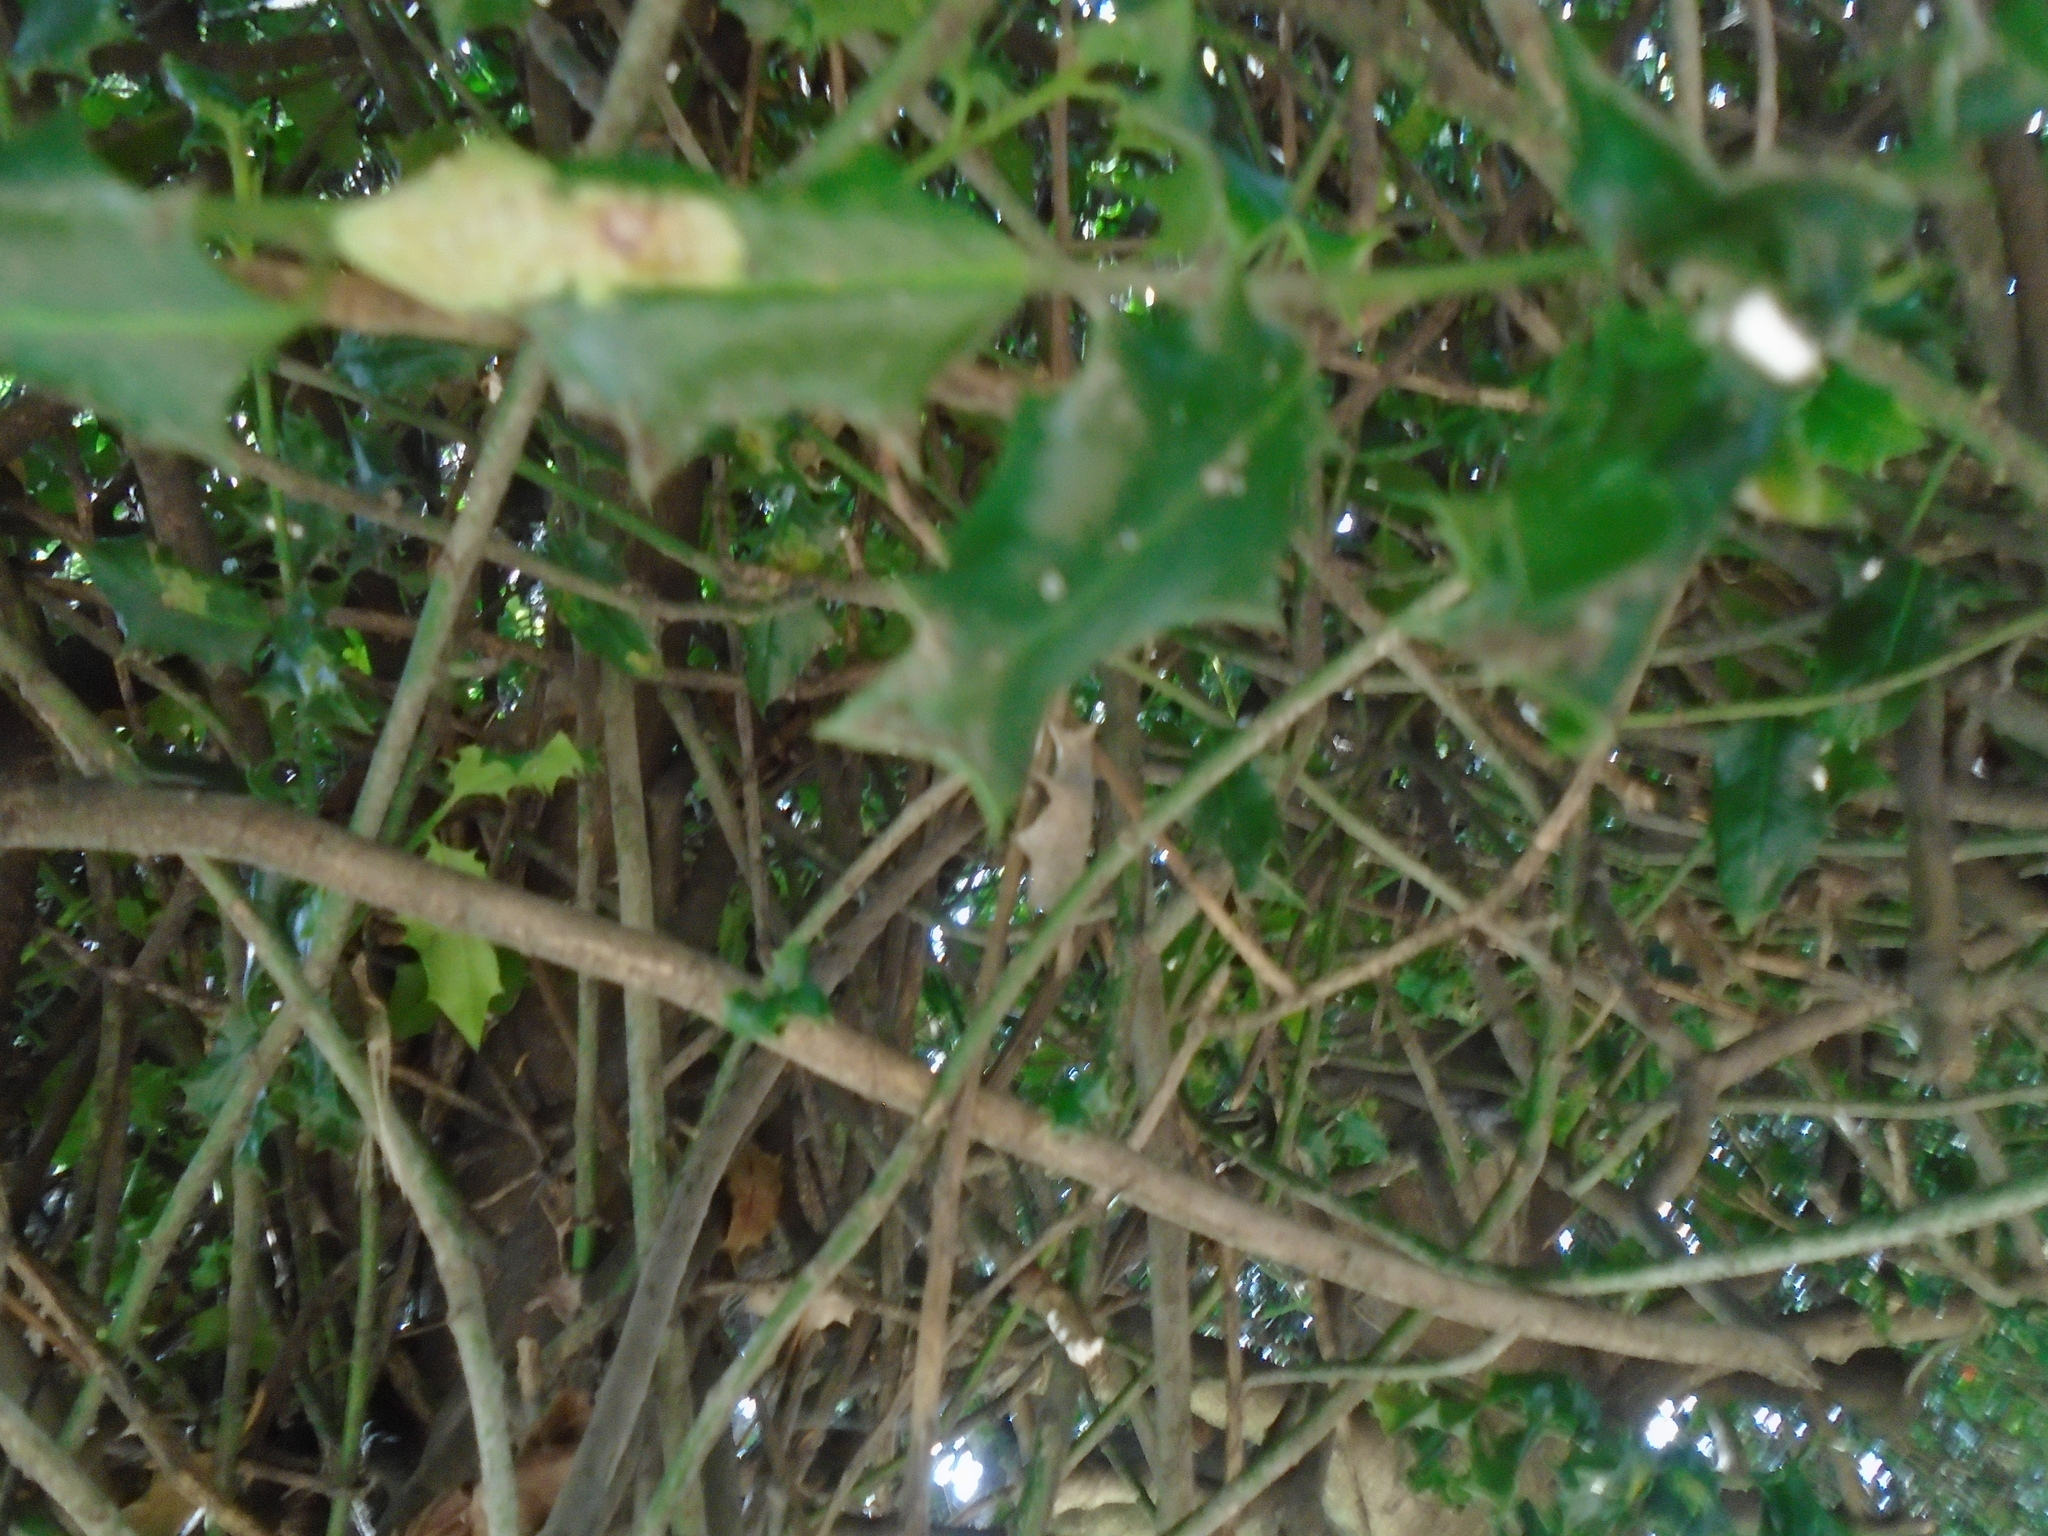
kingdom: Animalia
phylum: Arthropoda
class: Insecta
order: Diptera
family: Agromyzidae
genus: Phytomyza
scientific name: Phytomyza ilicis
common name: Holly leafminer
